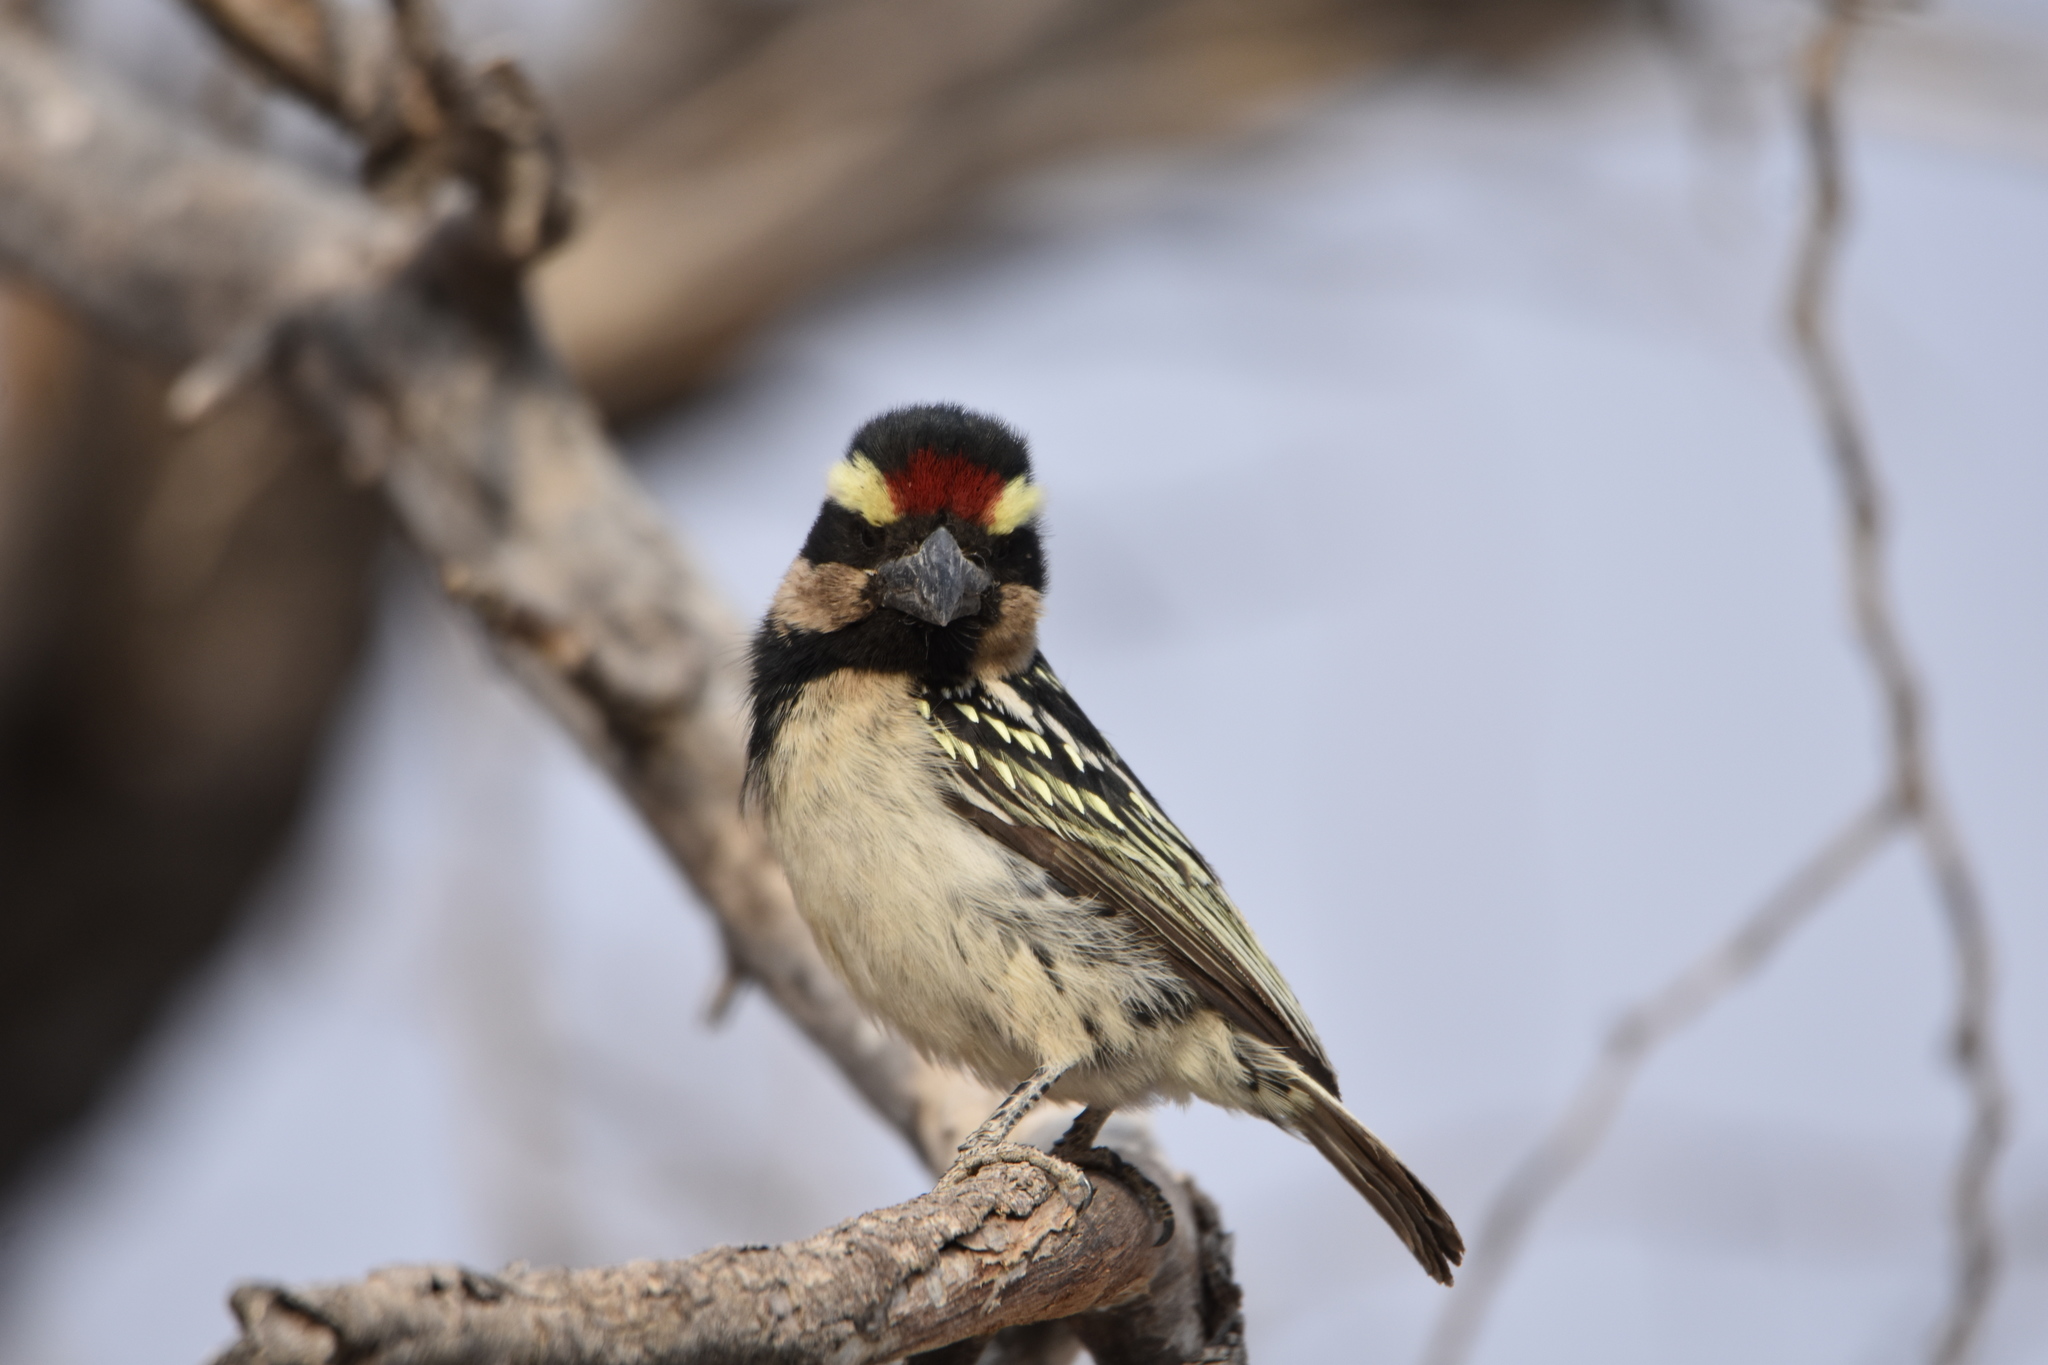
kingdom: Animalia
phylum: Chordata
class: Aves
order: Piciformes
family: Lybiidae
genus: Tricholaema
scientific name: Tricholaema leucomelas
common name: Acacia pied barbet
